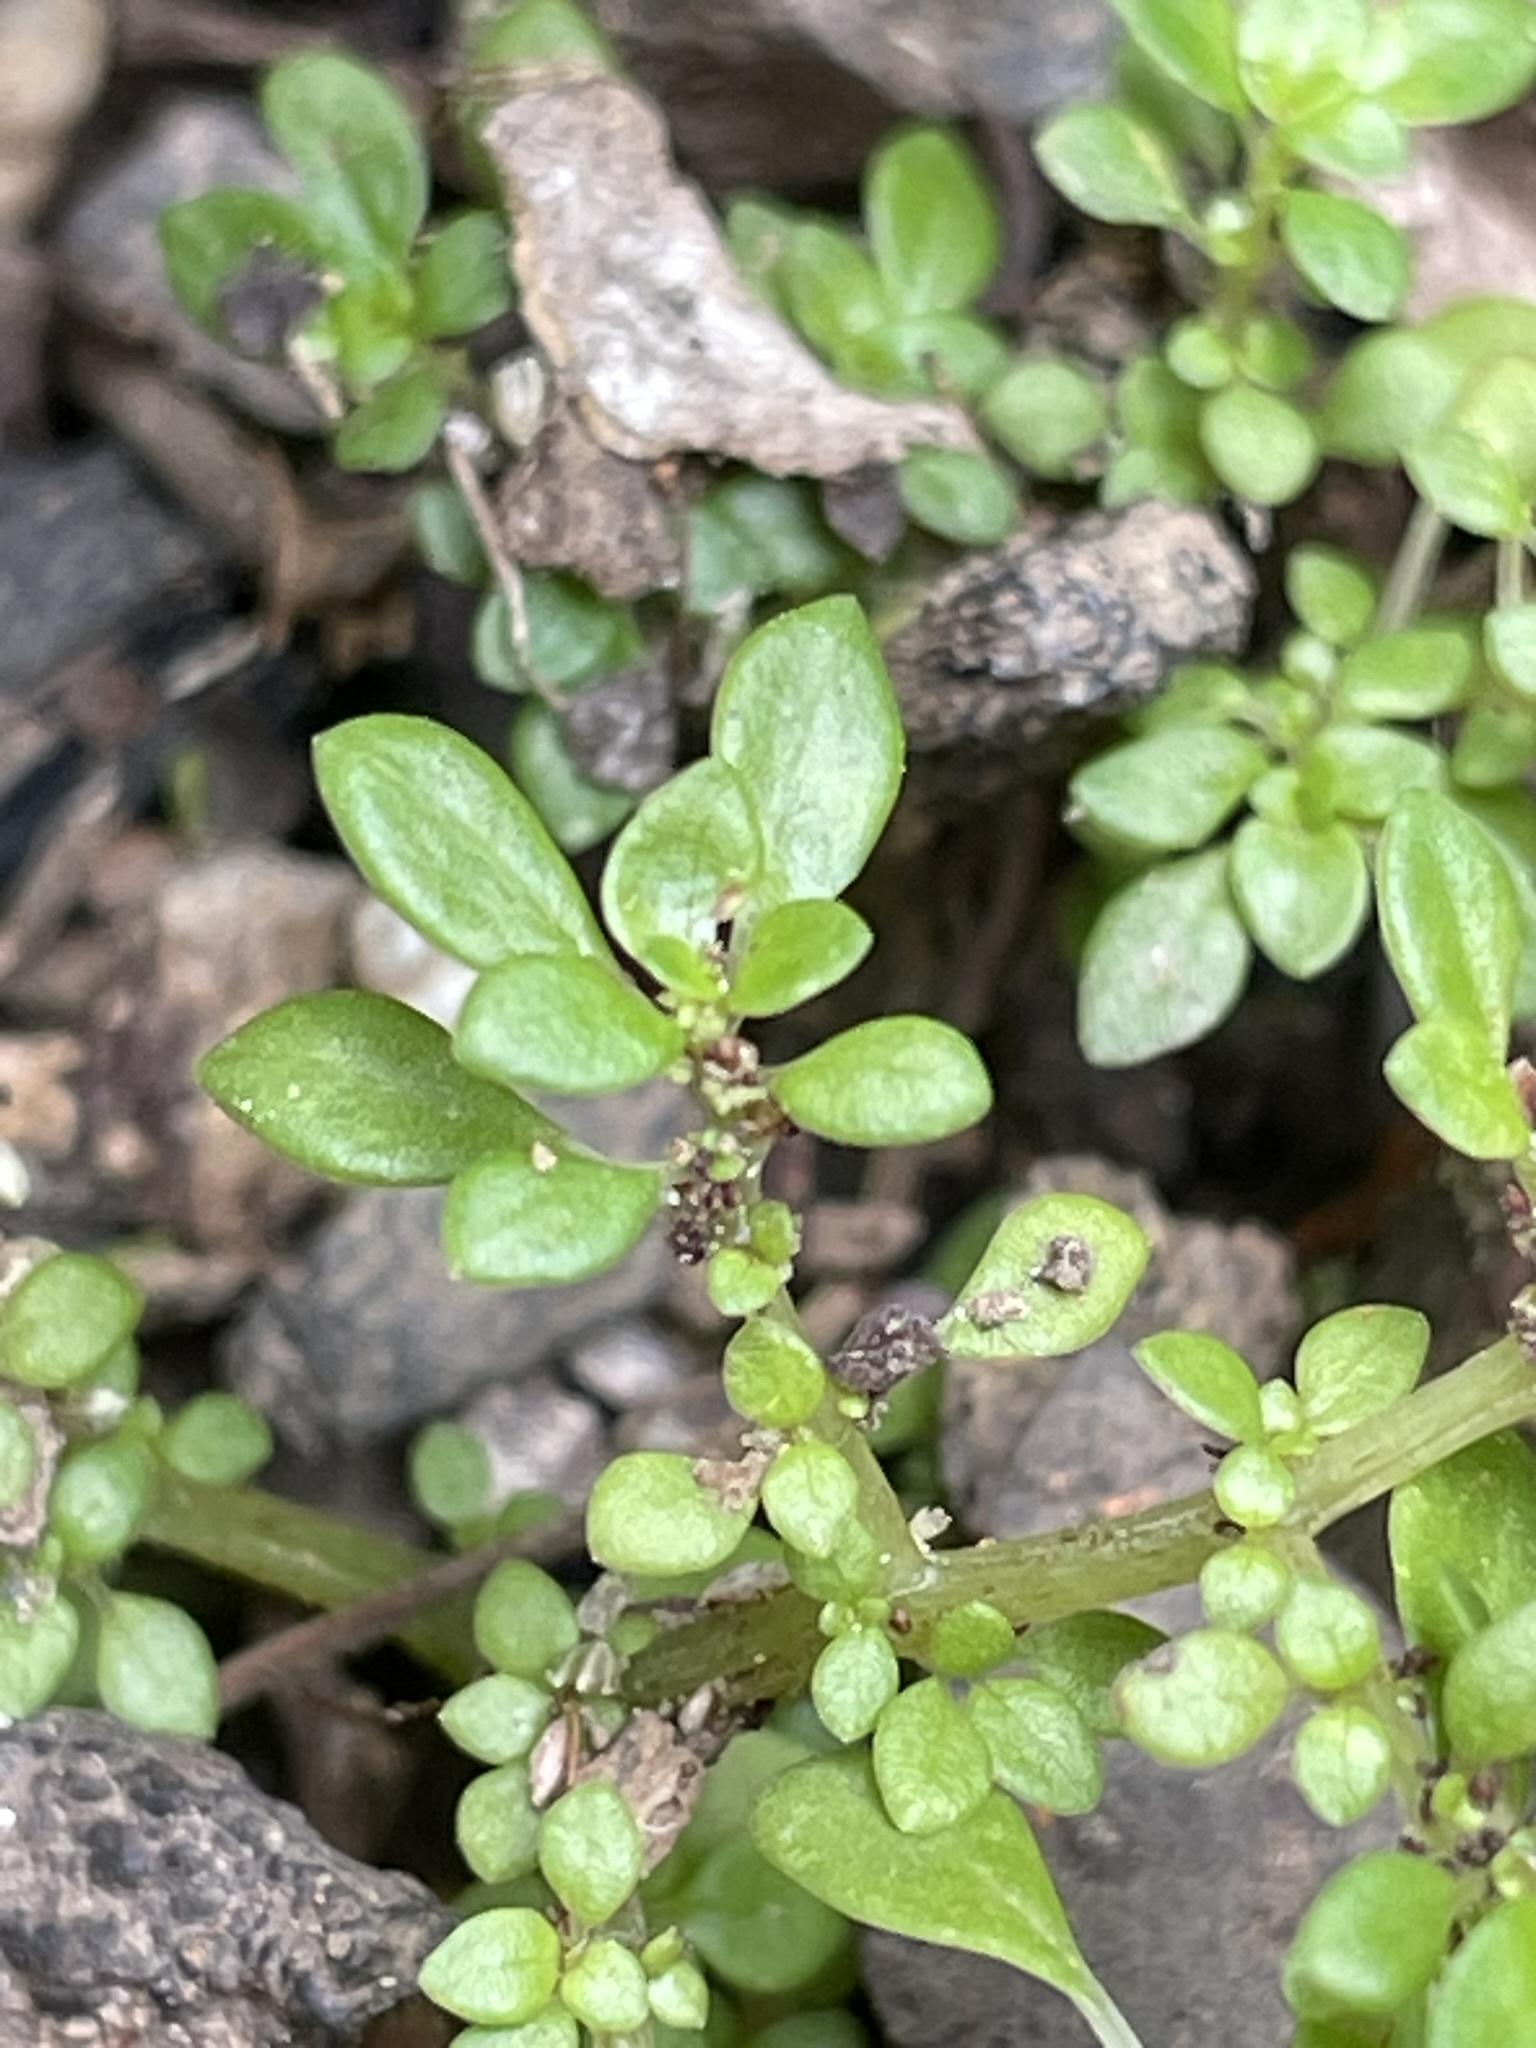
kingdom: Plantae
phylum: Tracheophyta
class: Magnoliopsida
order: Rosales
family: Urticaceae
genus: Pilea
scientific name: Pilea microphylla
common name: Artillery-plant
